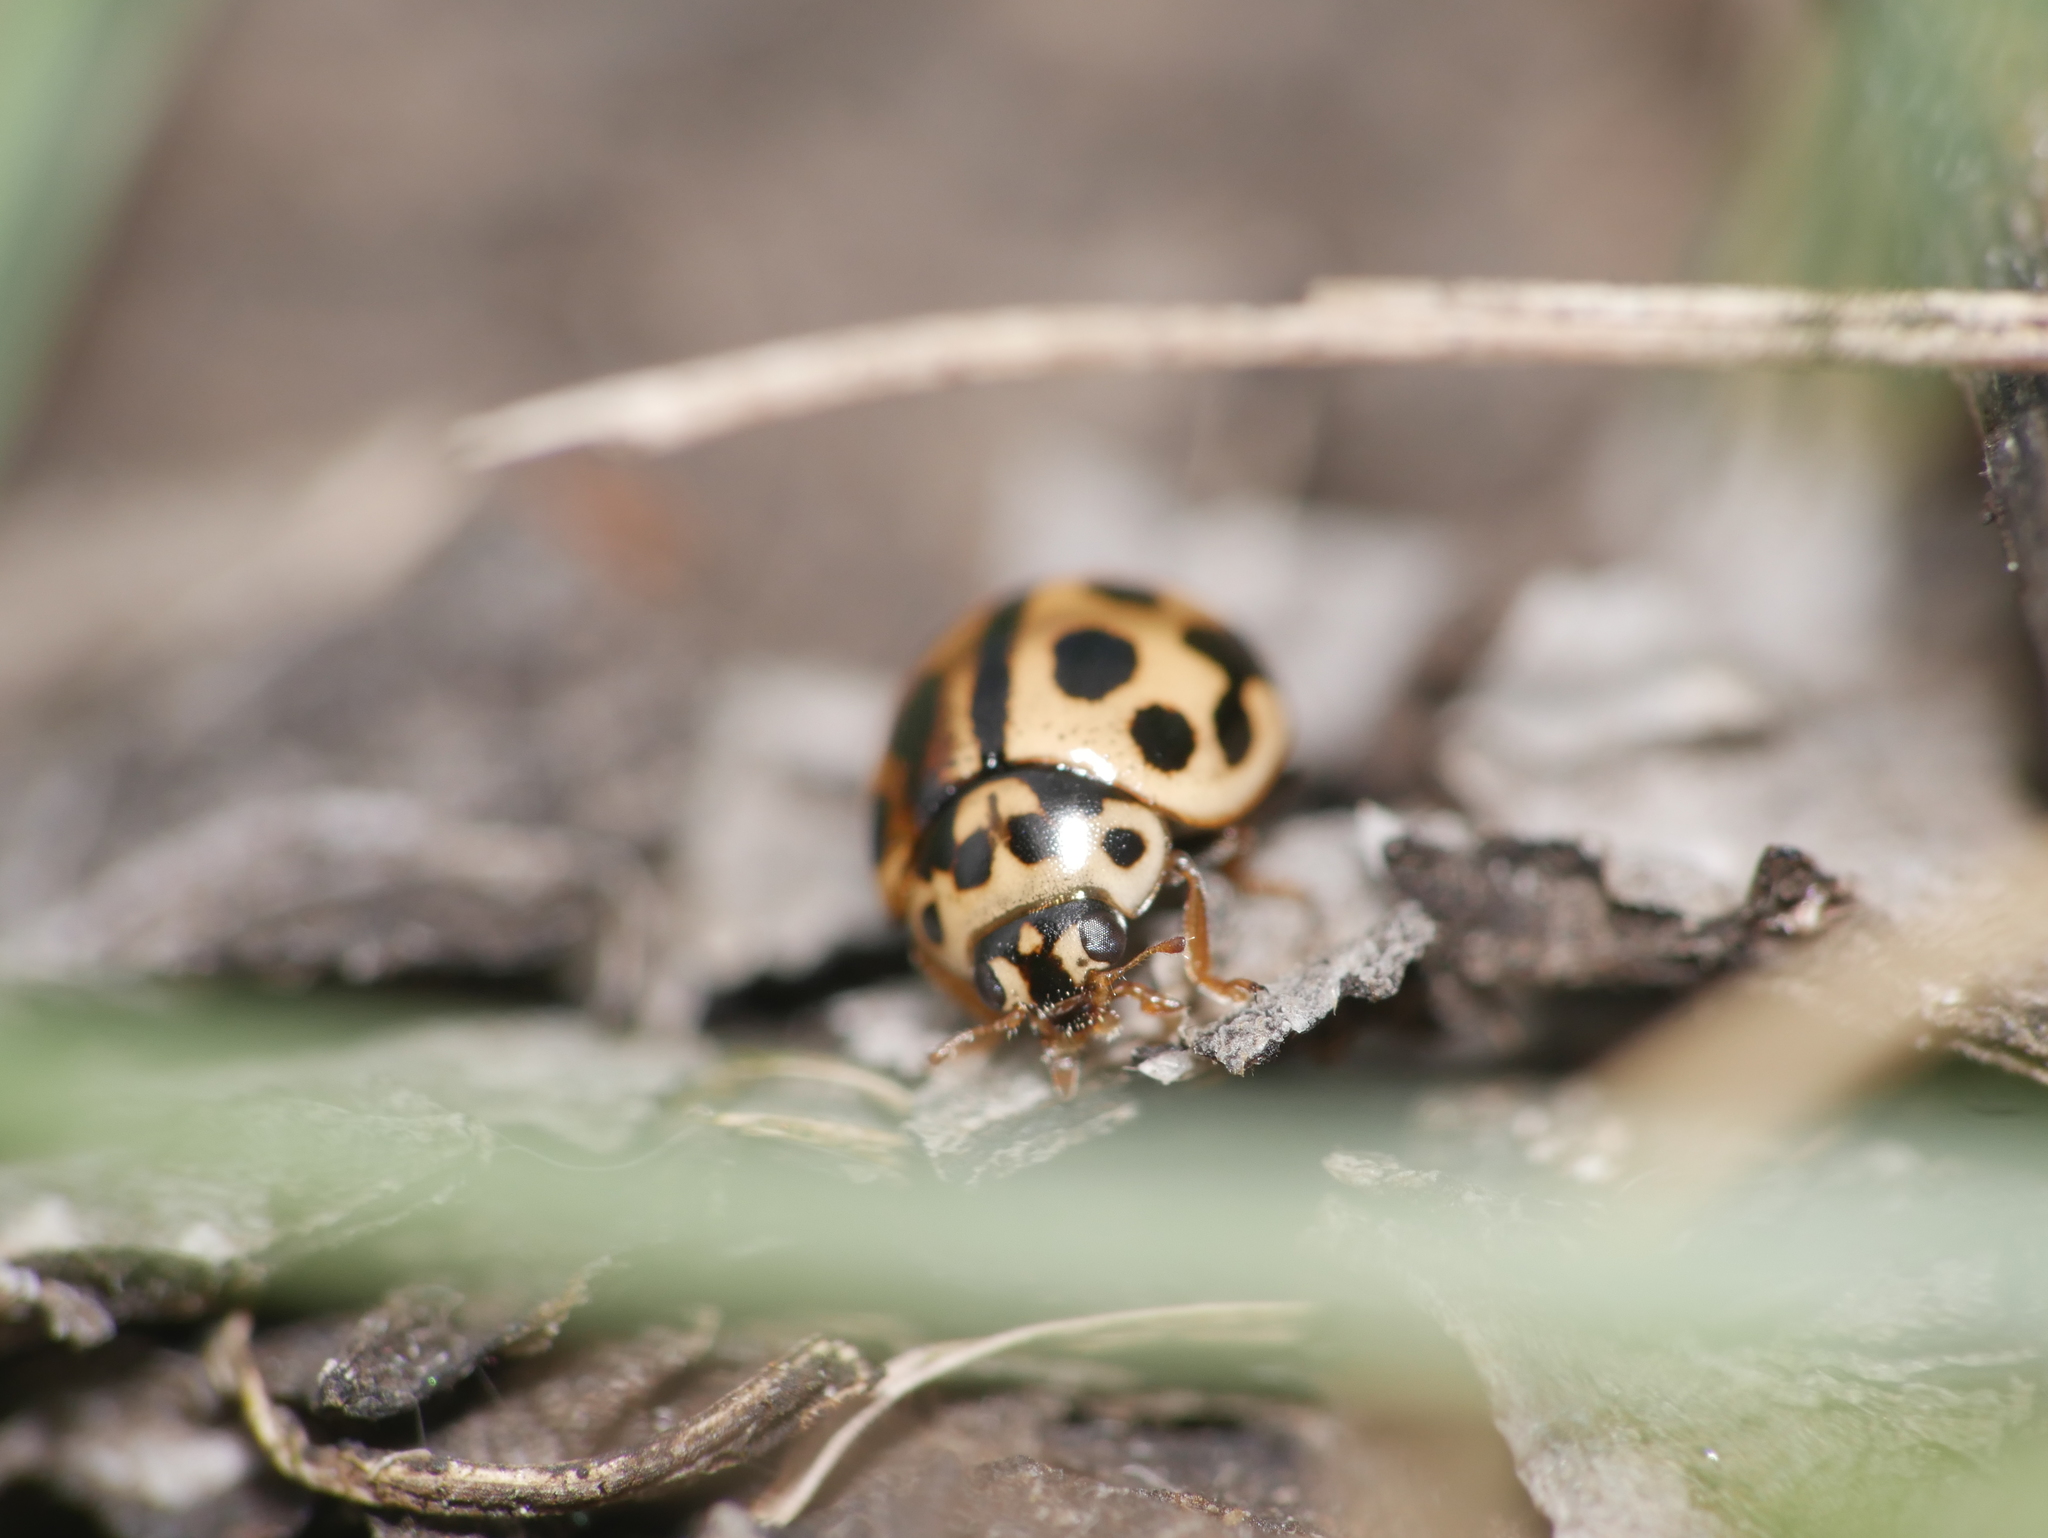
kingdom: Animalia
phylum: Arthropoda
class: Insecta
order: Coleoptera
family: Coccinellidae
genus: Tytthaspis
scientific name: Tytthaspis sedecimpunctata
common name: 16-spot ladybird
